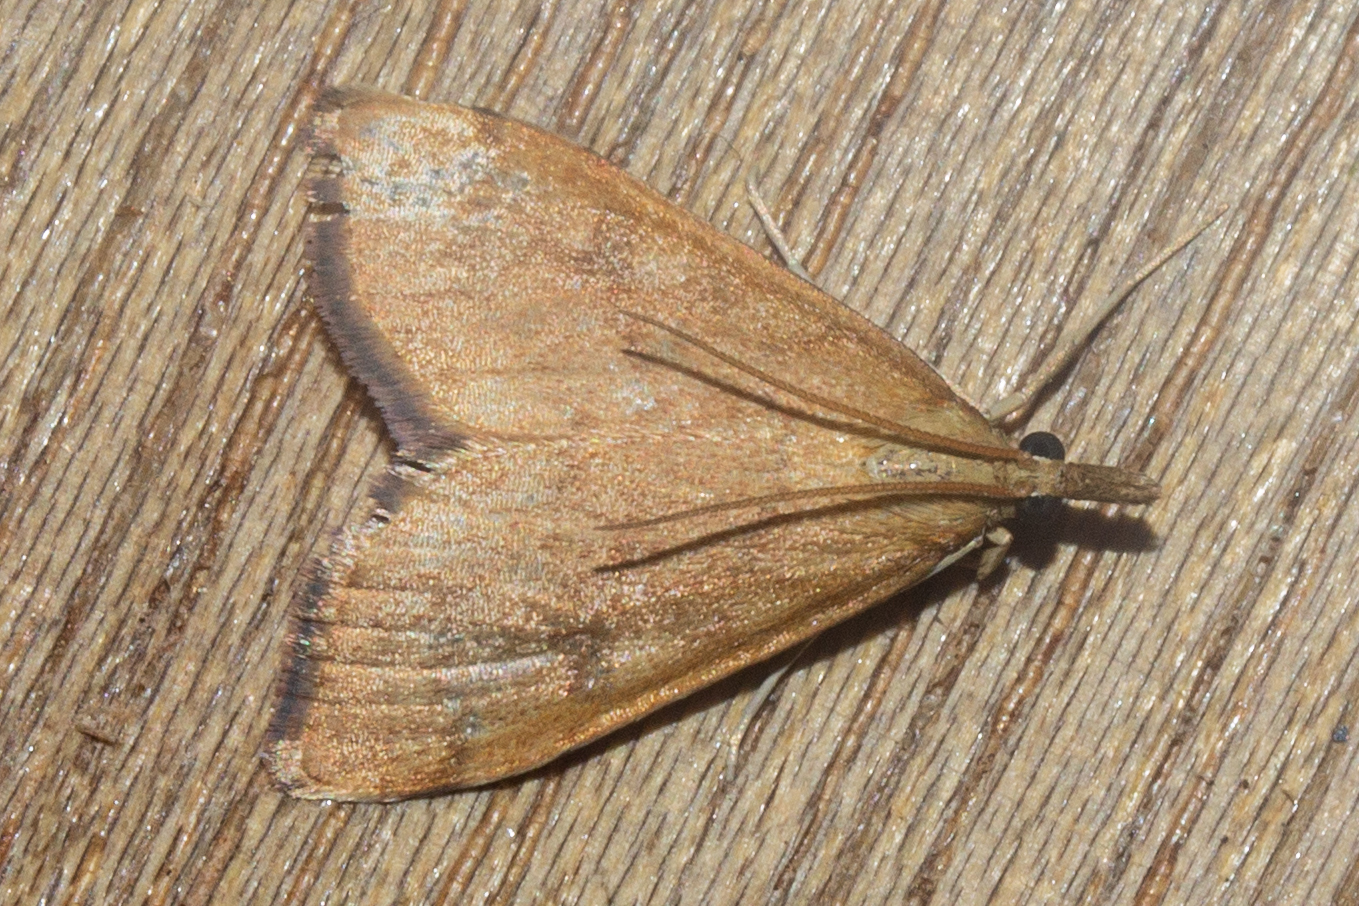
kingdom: Animalia
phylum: Arthropoda
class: Insecta
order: Lepidoptera
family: Crambidae
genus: Udea
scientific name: Udea Mnesictena flavidalis
